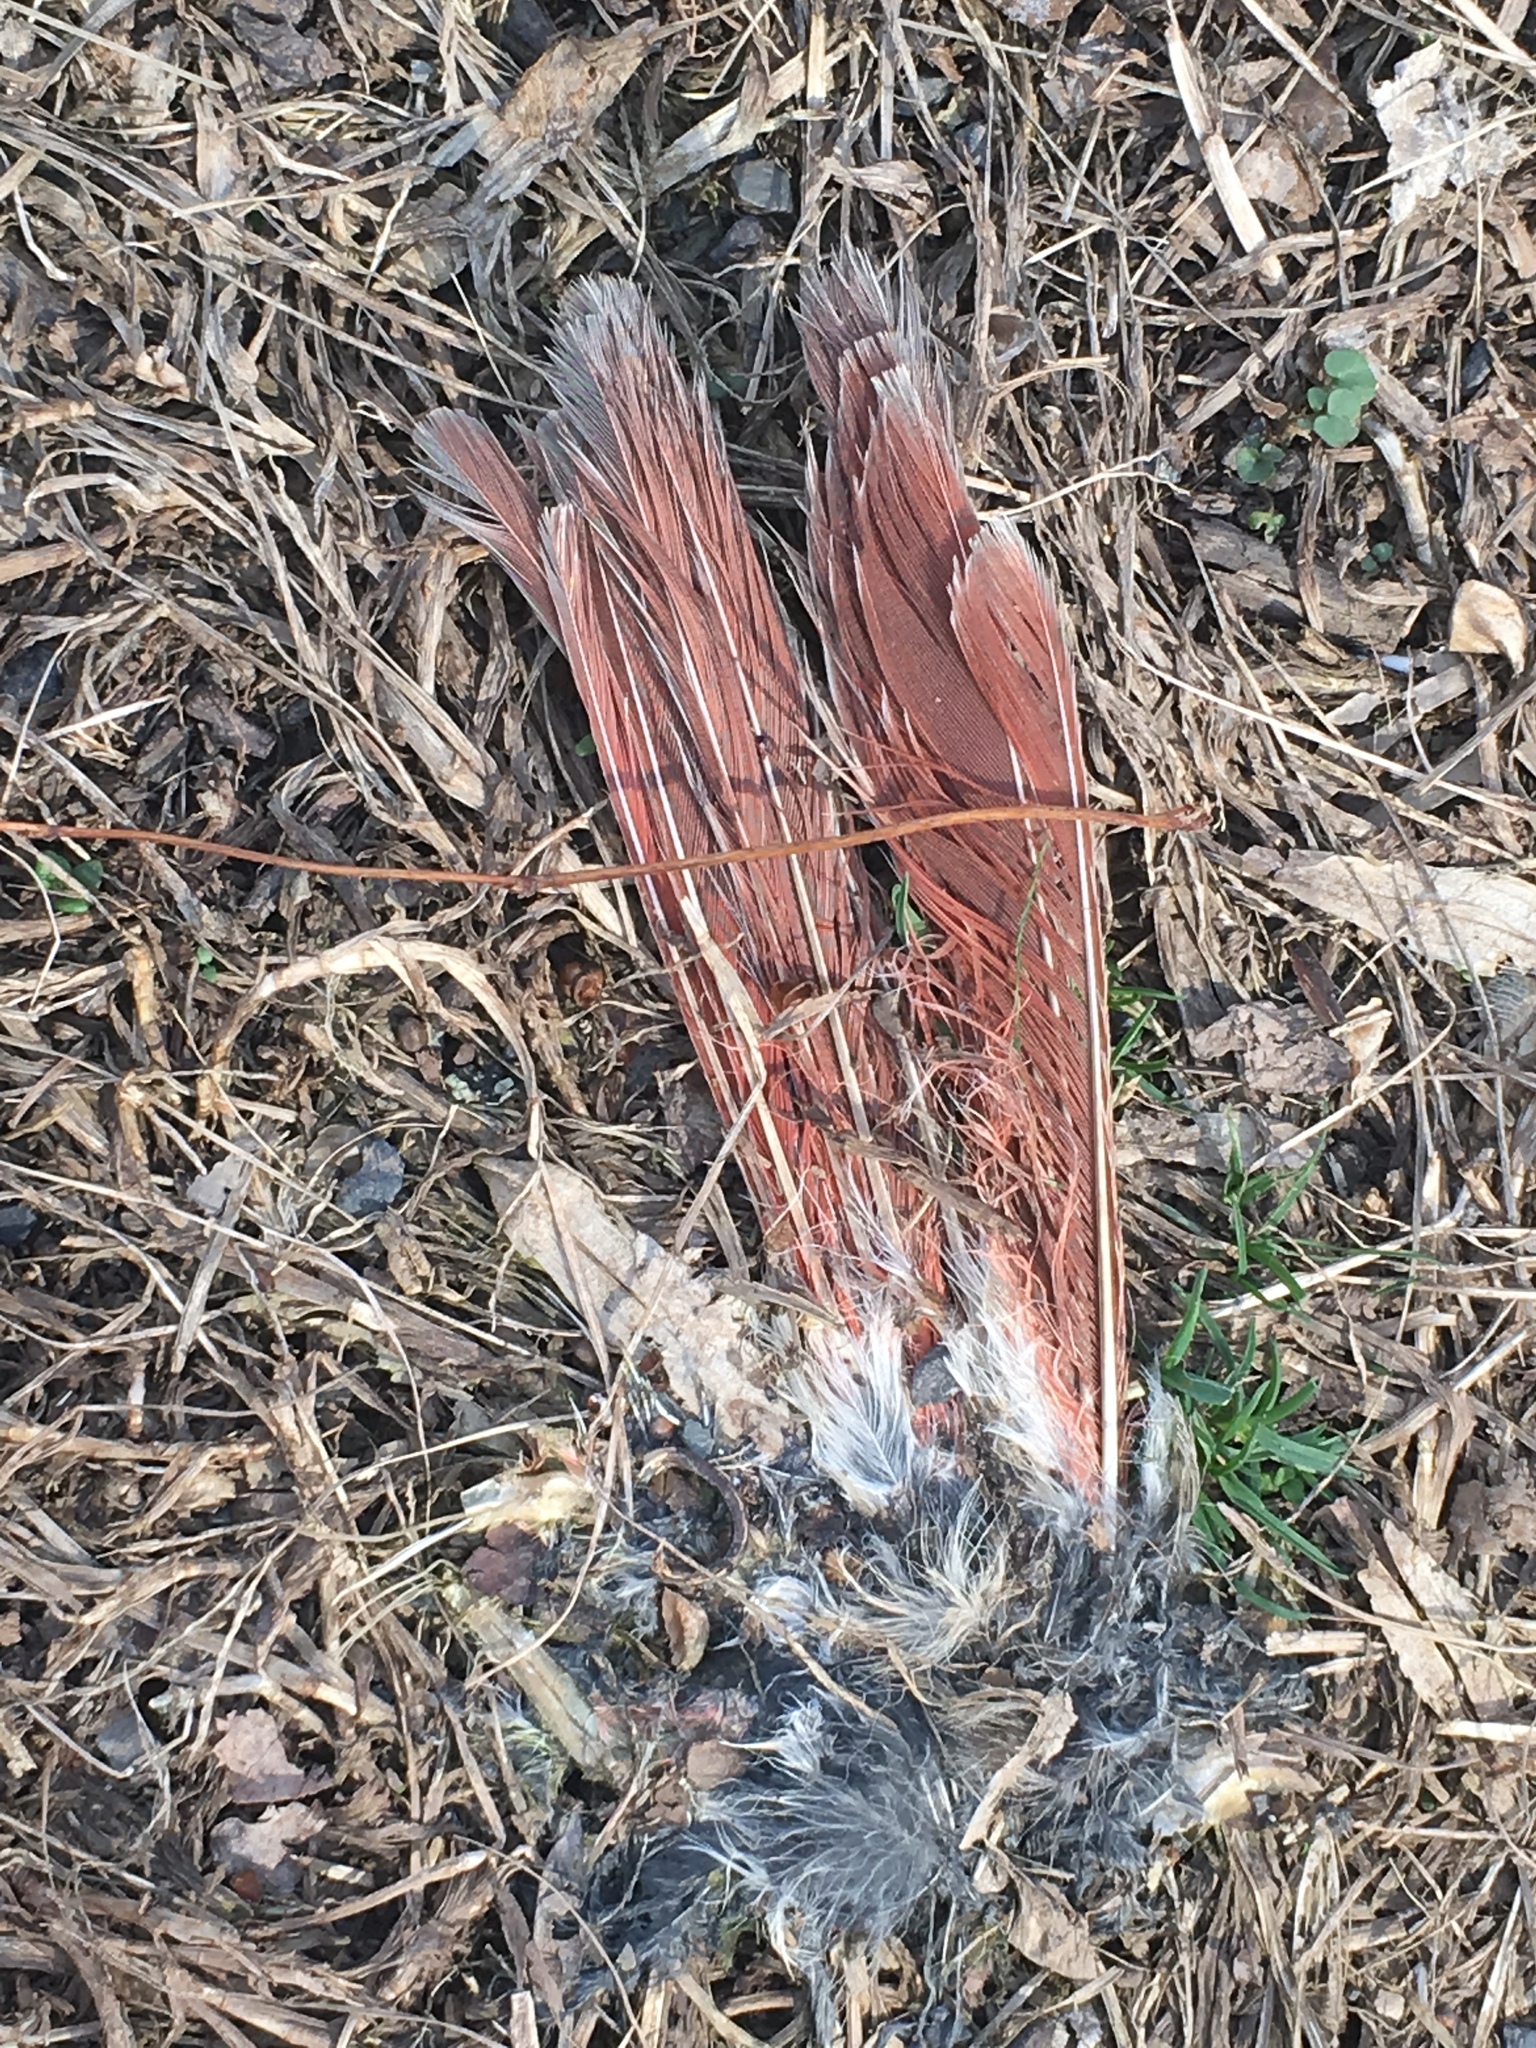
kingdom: Animalia
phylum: Chordata
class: Aves
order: Passeriformes
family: Cardinalidae
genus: Cardinalis
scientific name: Cardinalis cardinalis
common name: Northern cardinal
